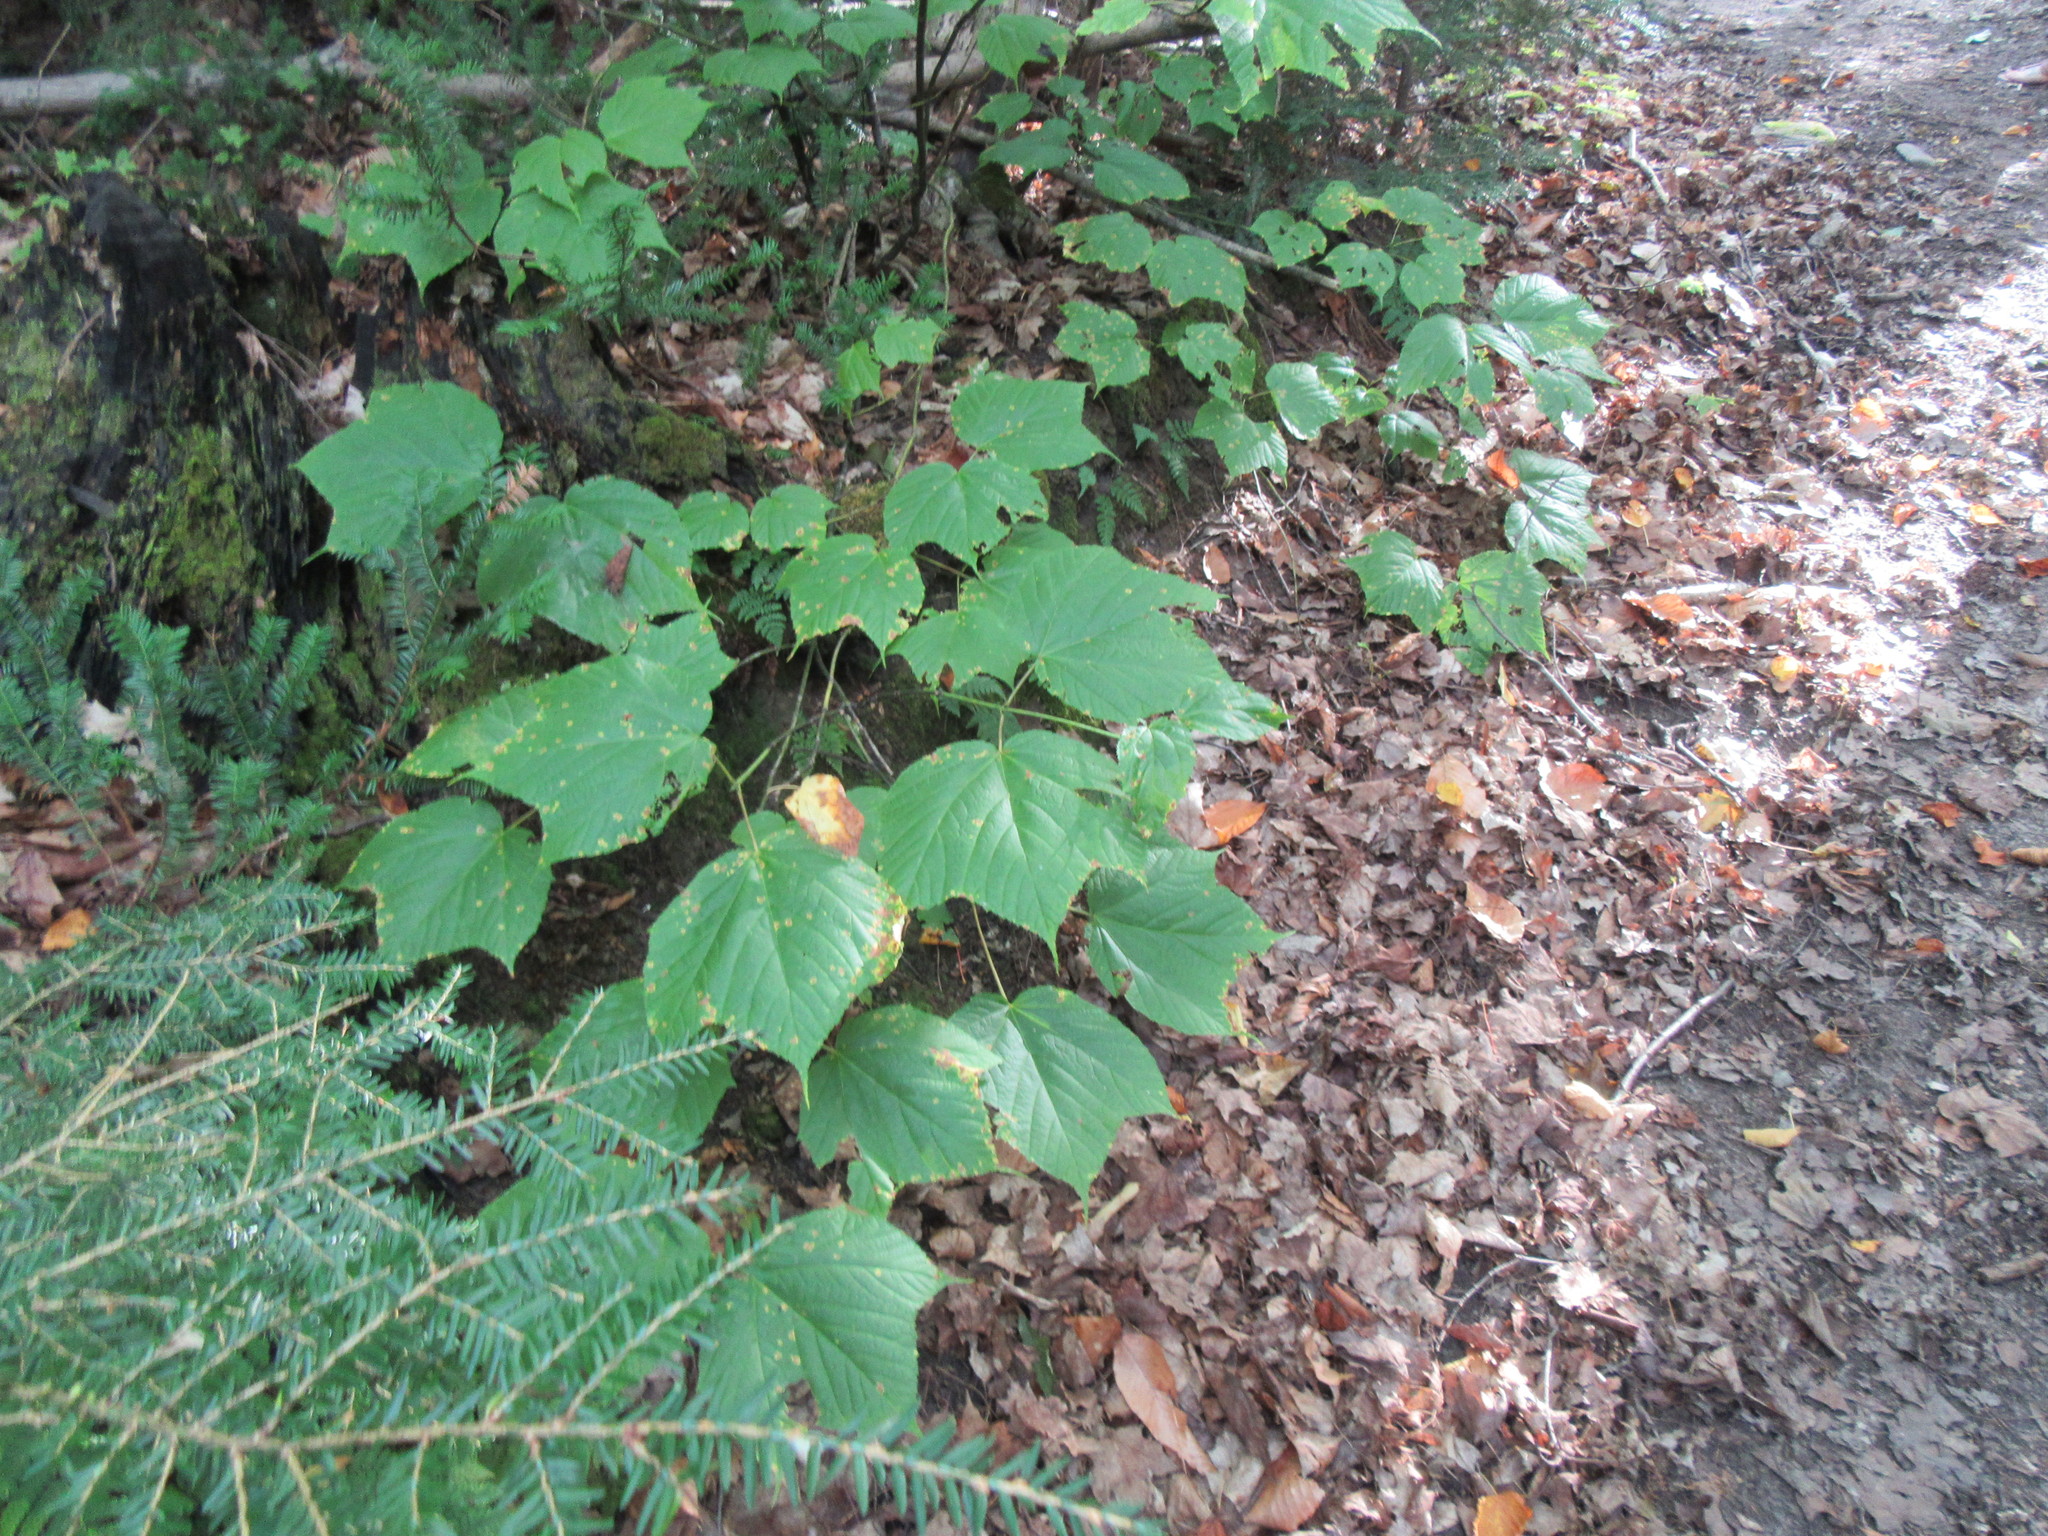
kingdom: Plantae
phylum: Tracheophyta
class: Magnoliopsida
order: Sapindales
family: Sapindaceae
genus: Acer
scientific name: Acer pensylvanicum
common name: Moosewood
